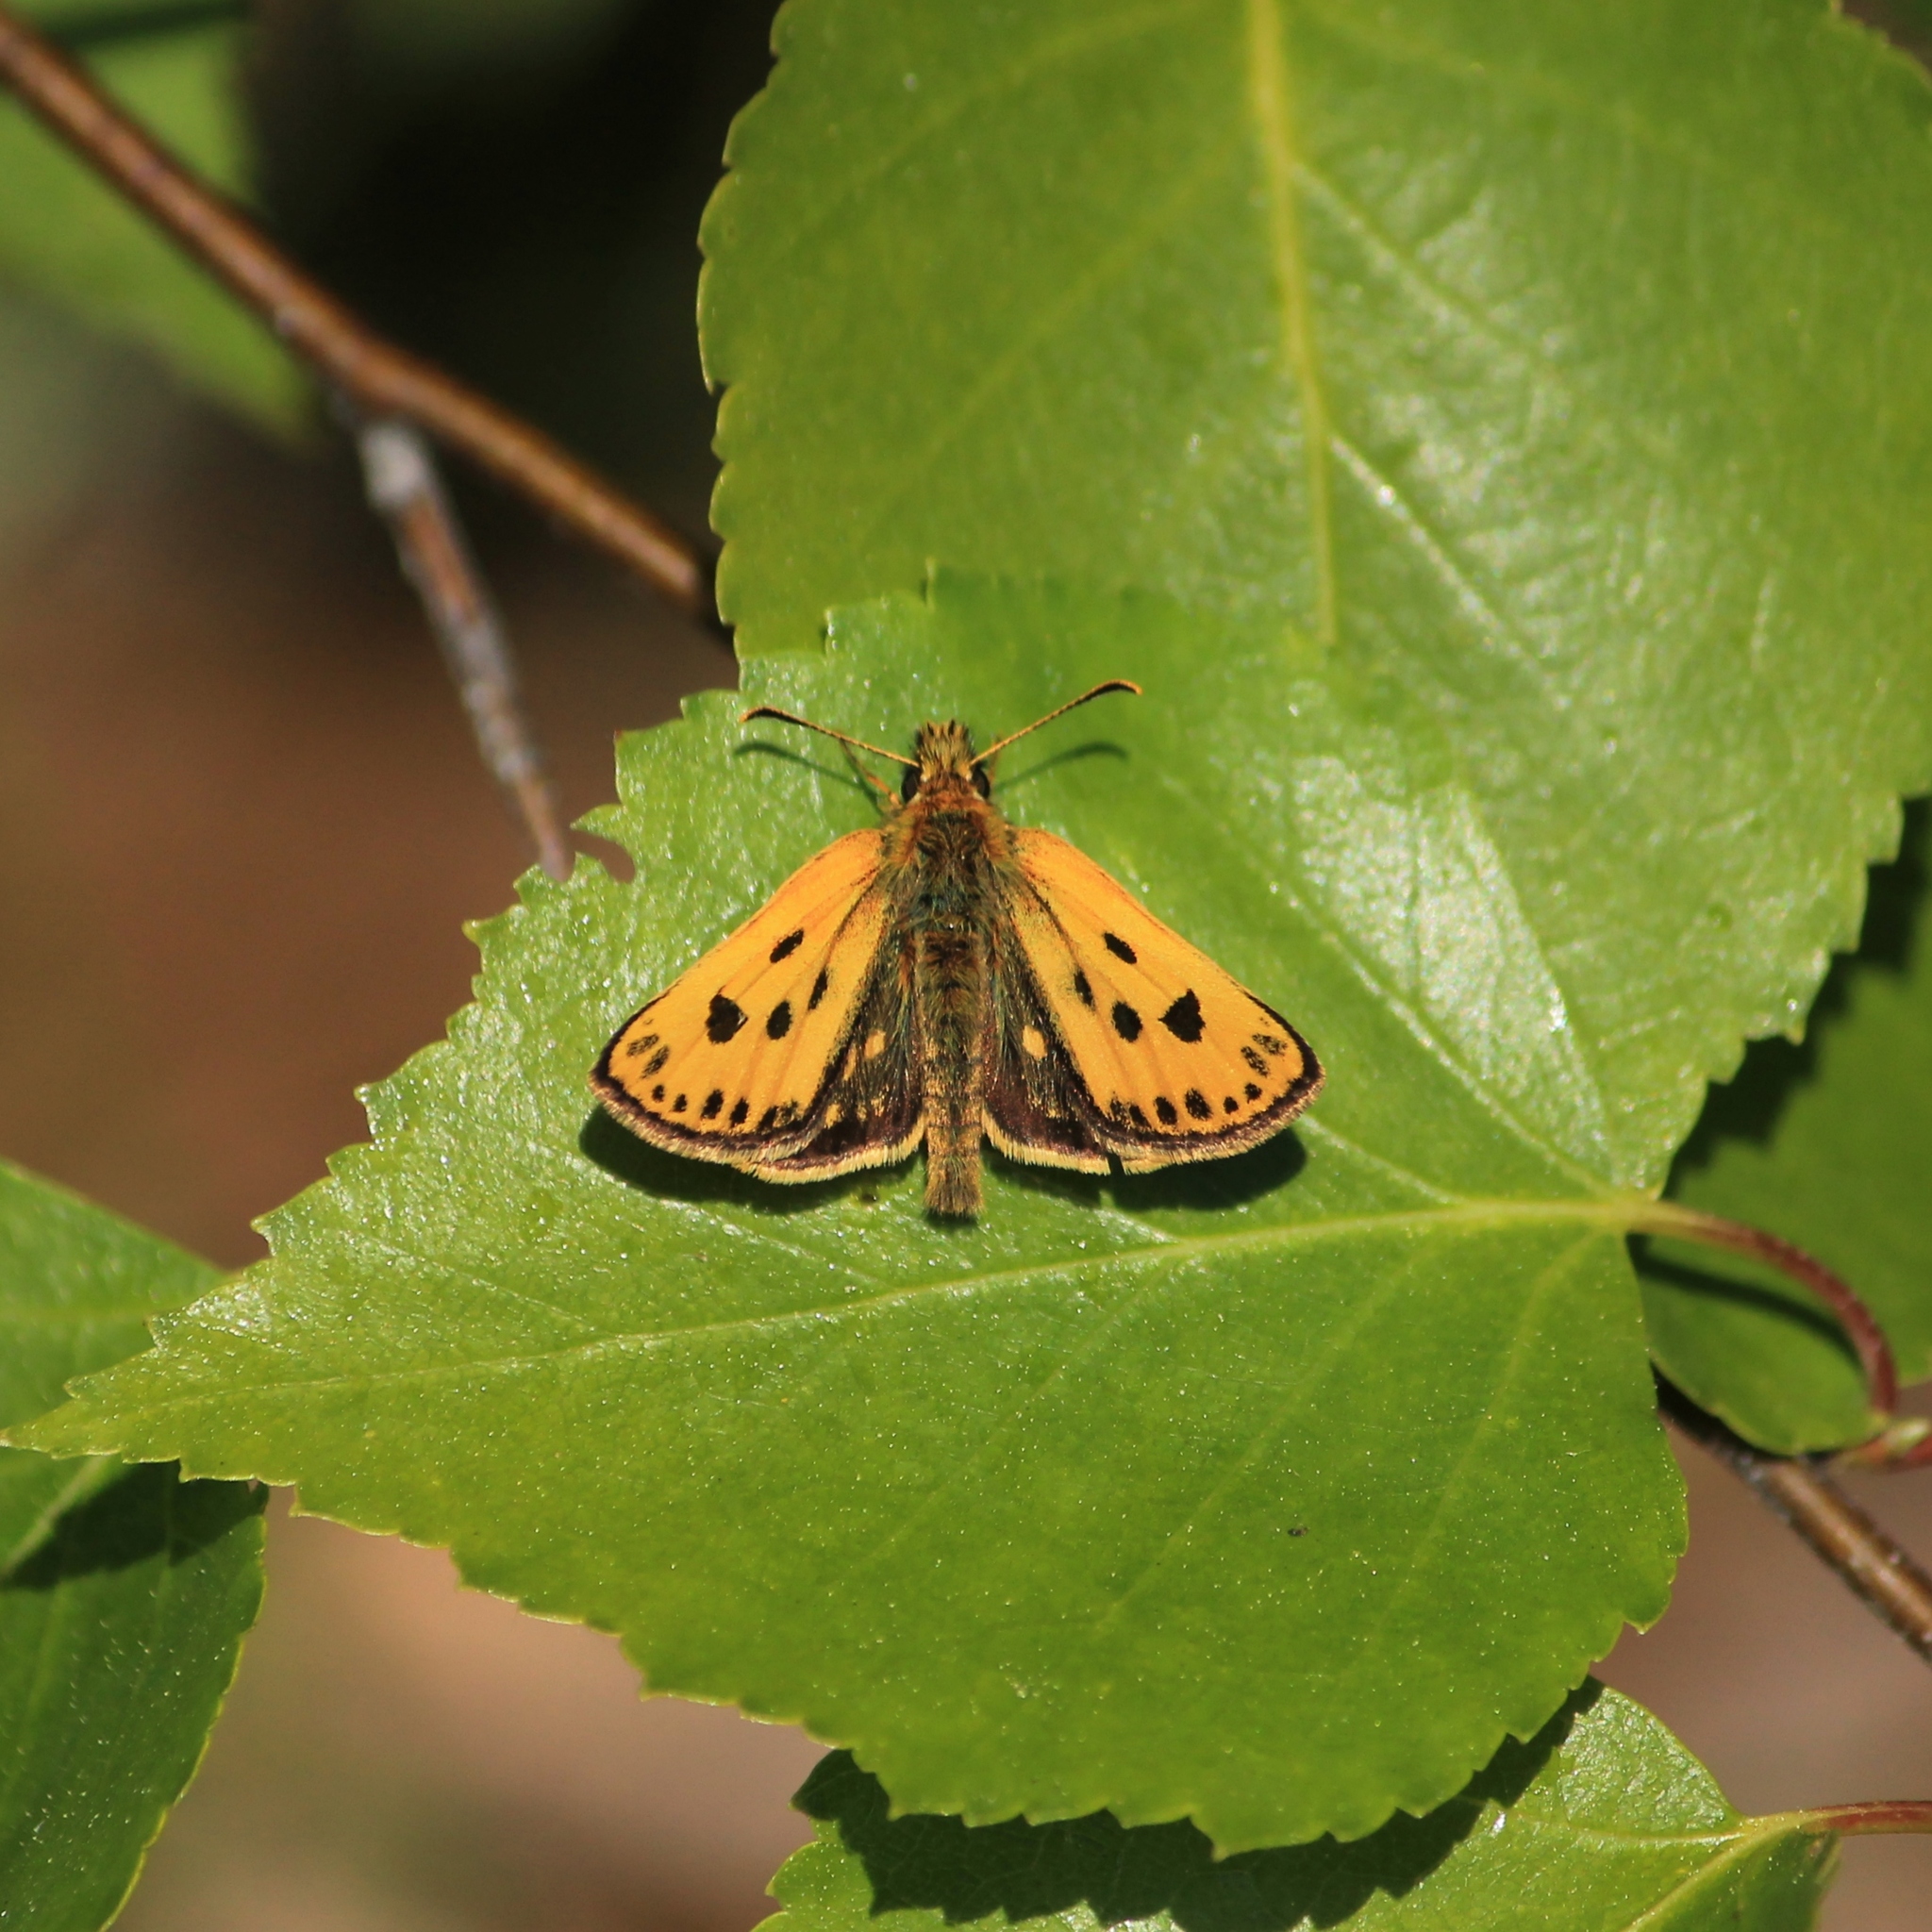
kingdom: Animalia
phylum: Arthropoda
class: Insecta
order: Lepidoptera
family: Hesperiidae
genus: Carterocephalus
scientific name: Carterocephalus silvicola
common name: Northern chequered skipper
